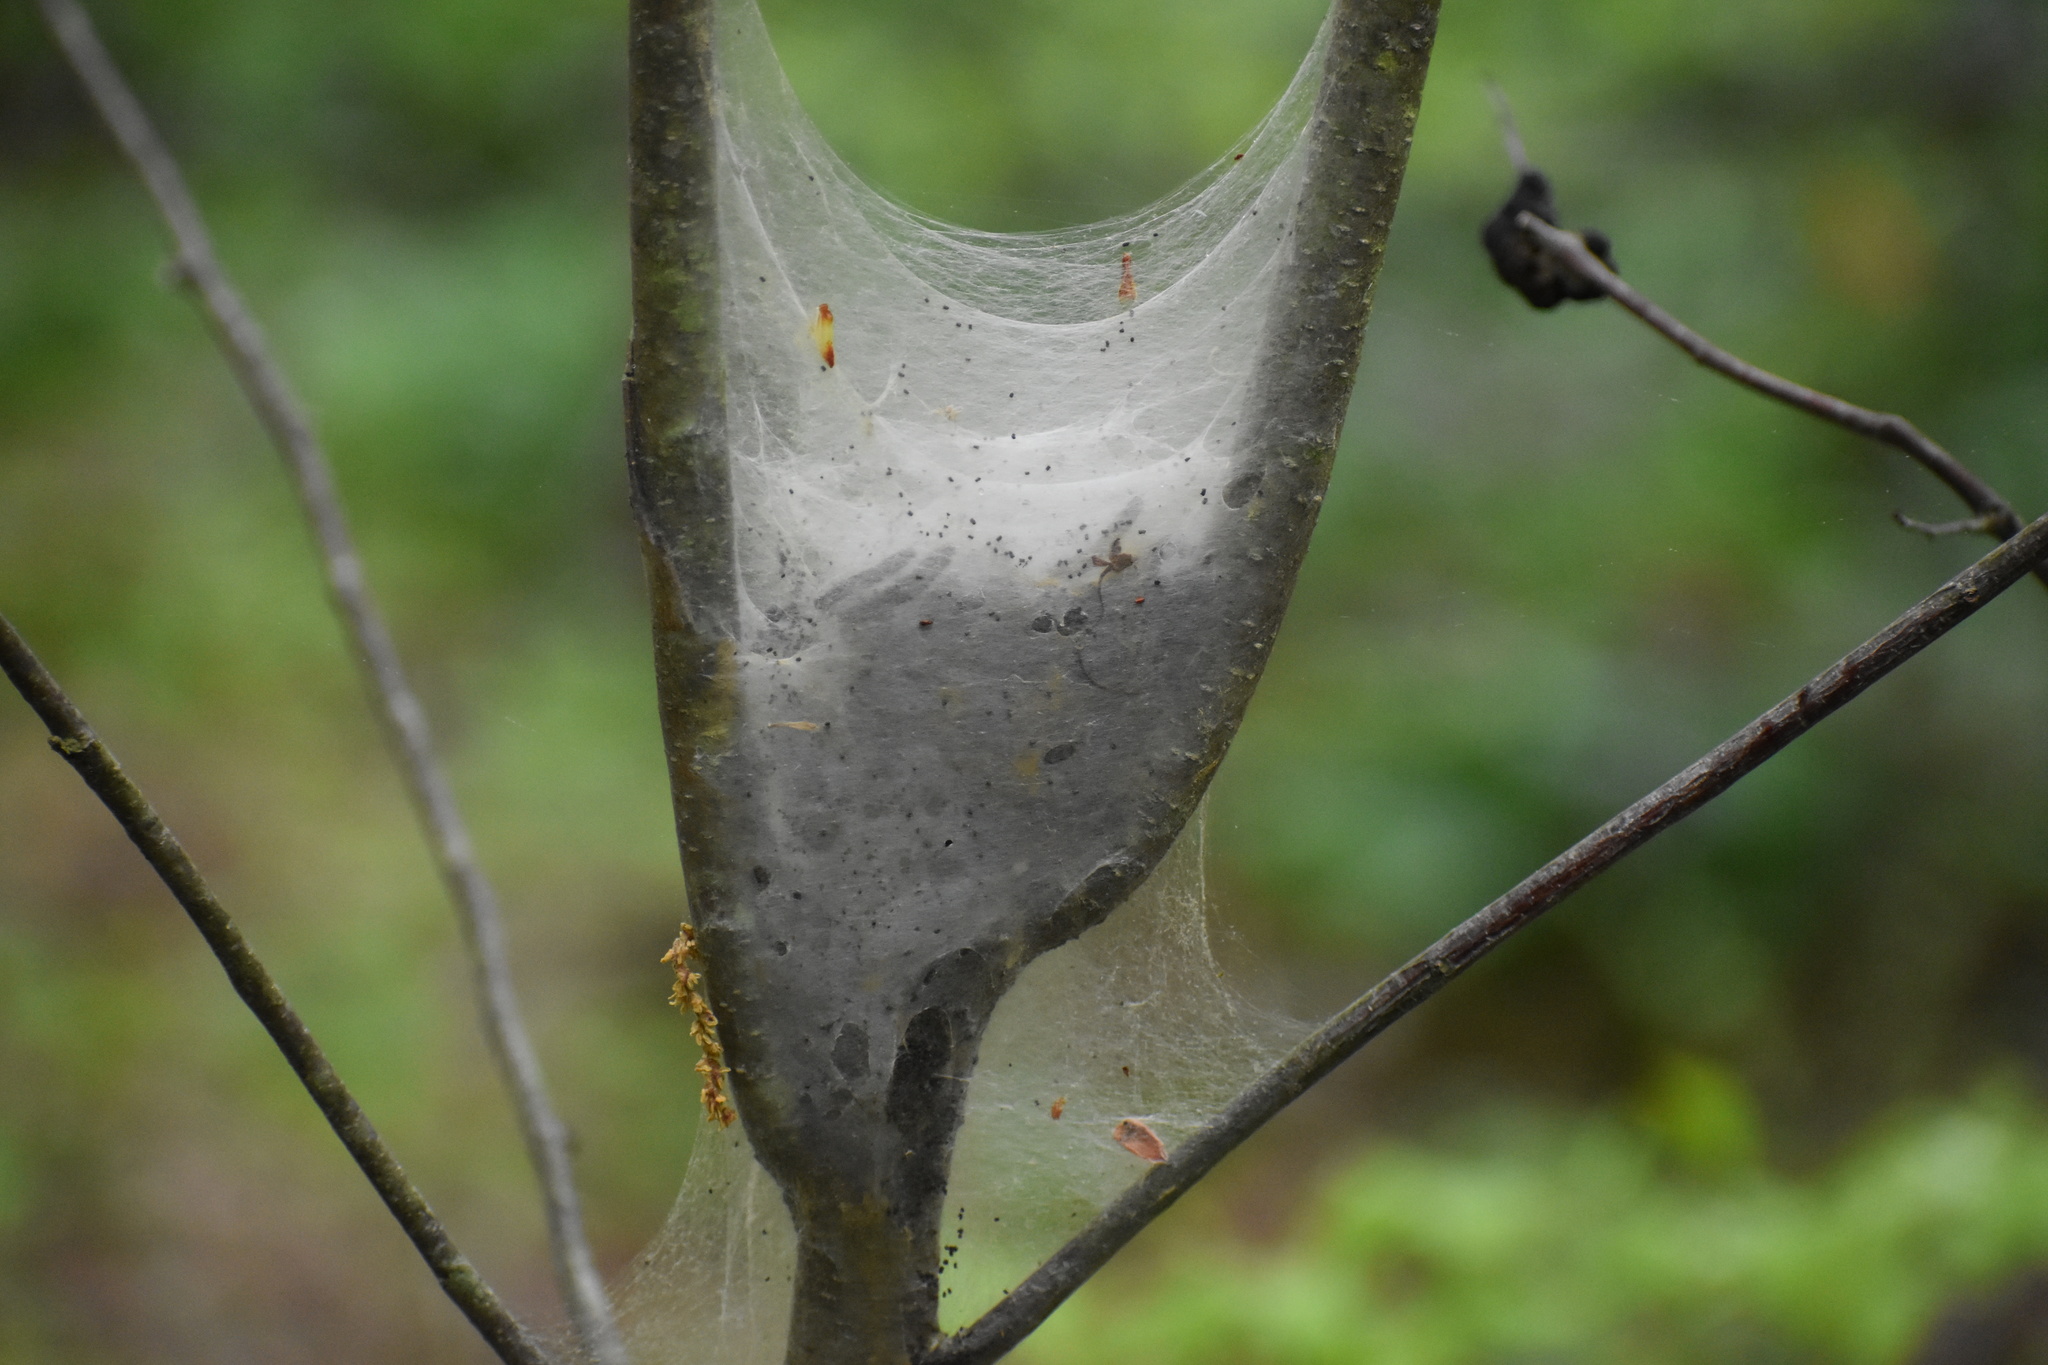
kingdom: Animalia
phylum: Arthropoda
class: Insecta
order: Lepidoptera
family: Lasiocampidae
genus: Malacosoma
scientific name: Malacosoma americana
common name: Eastern tent caterpillar moth
